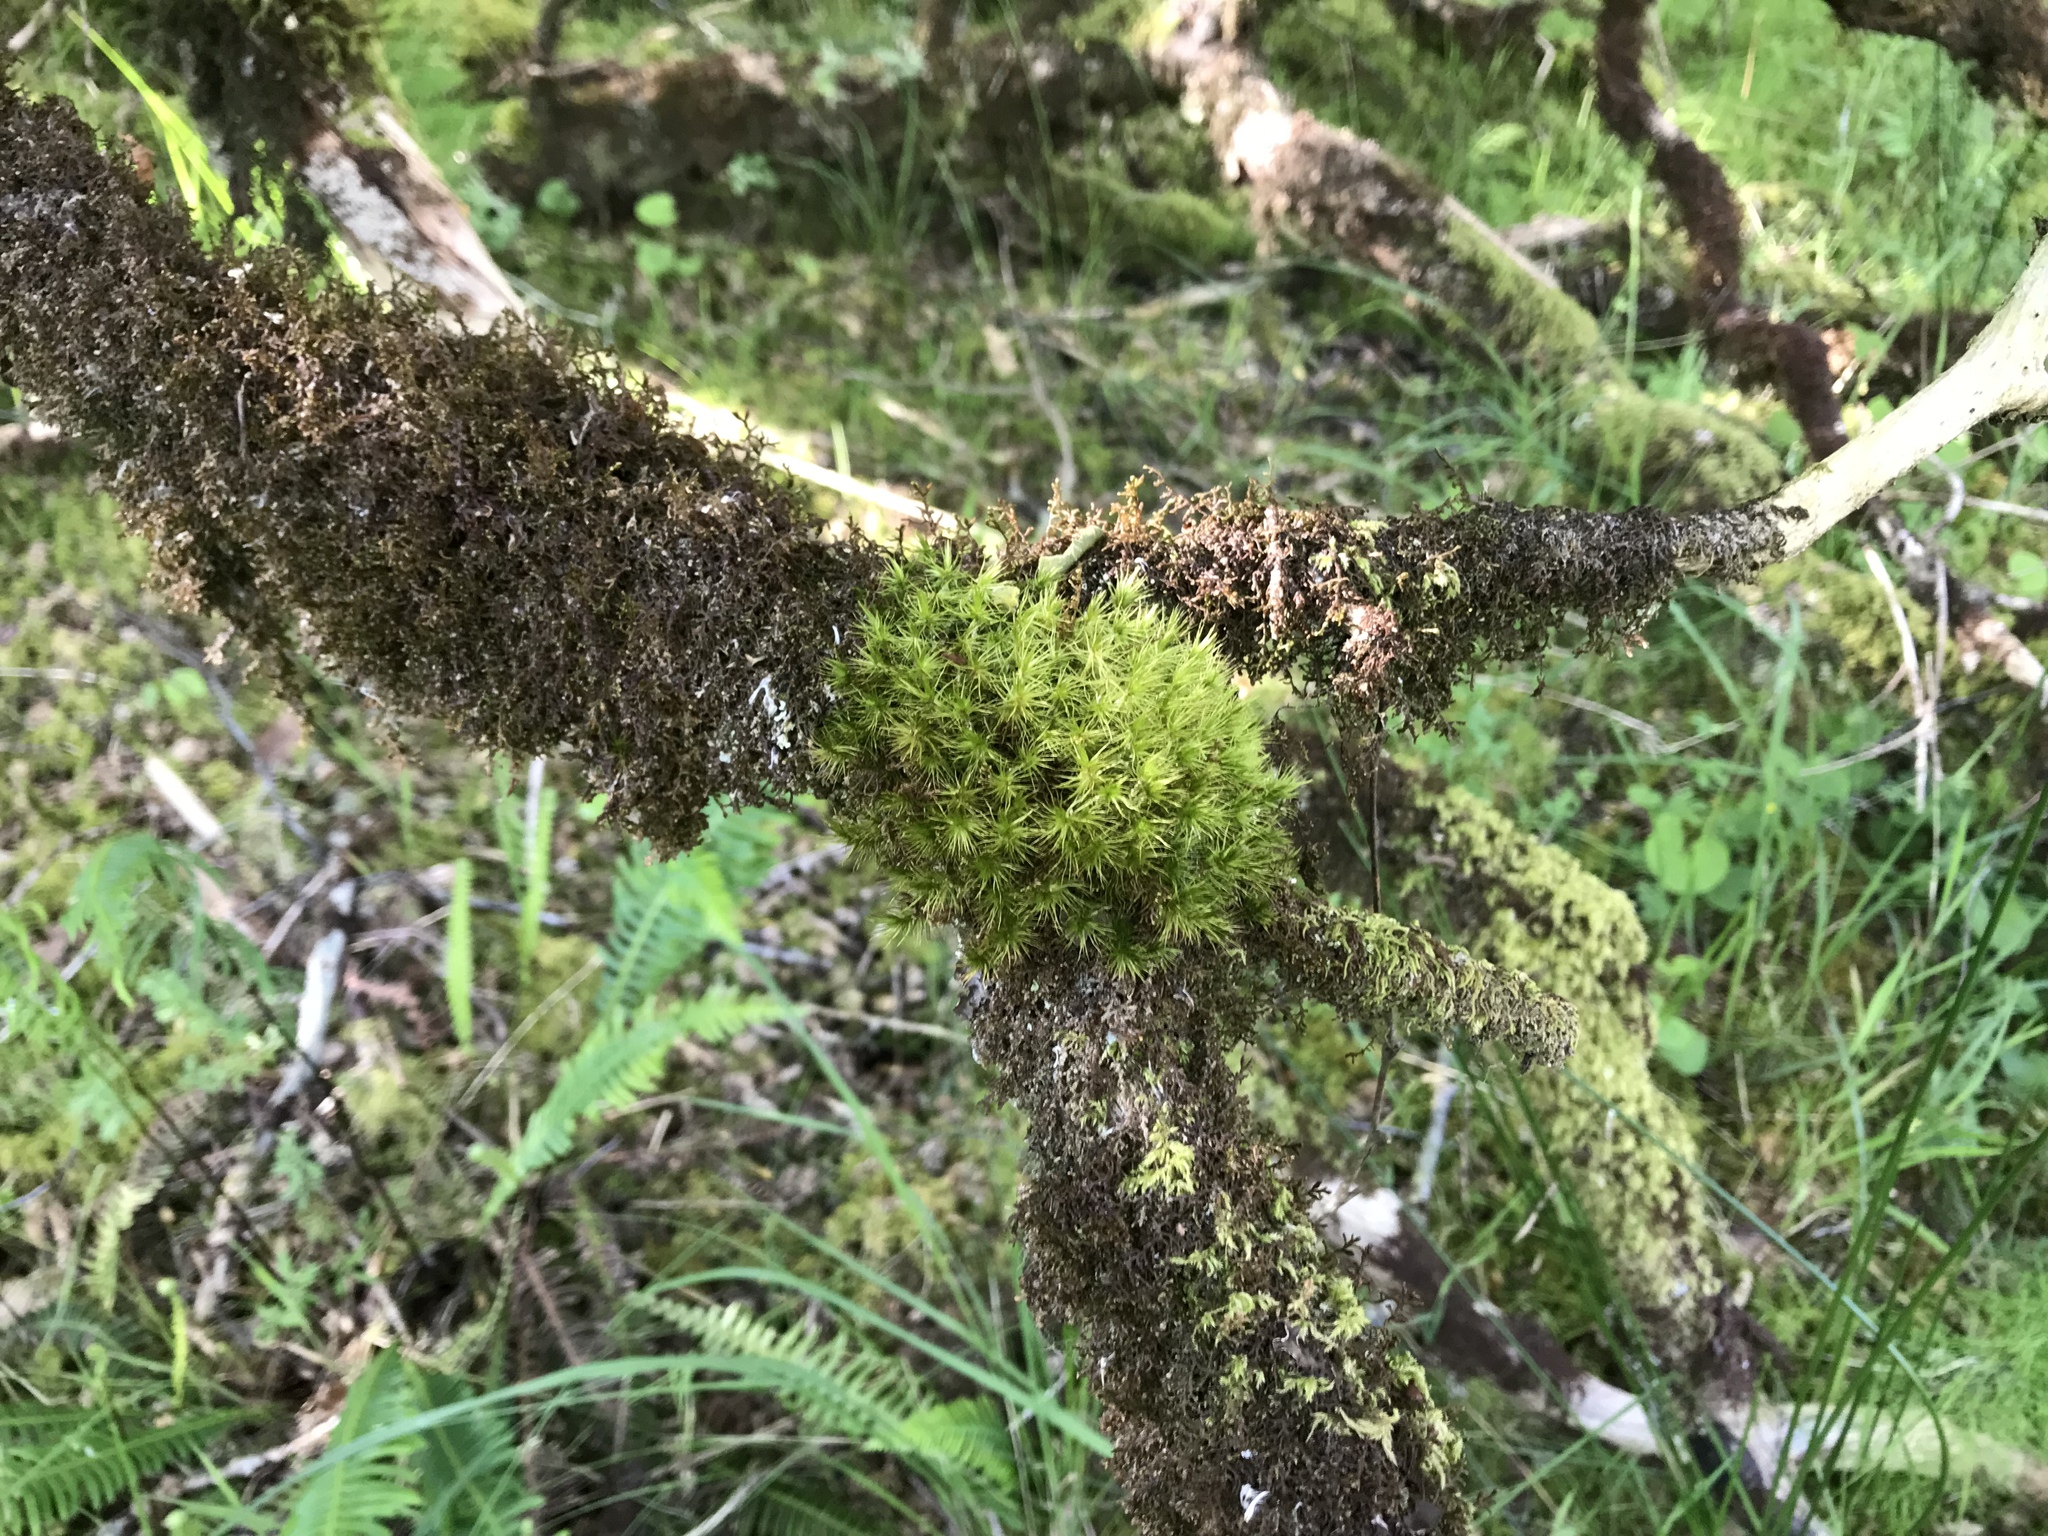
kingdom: Plantae
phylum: Bryophyta
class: Bryopsida
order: Dicranales
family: Dicranaceae
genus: Dicranum
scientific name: Dicranum scoparium
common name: Broom fork-moss
